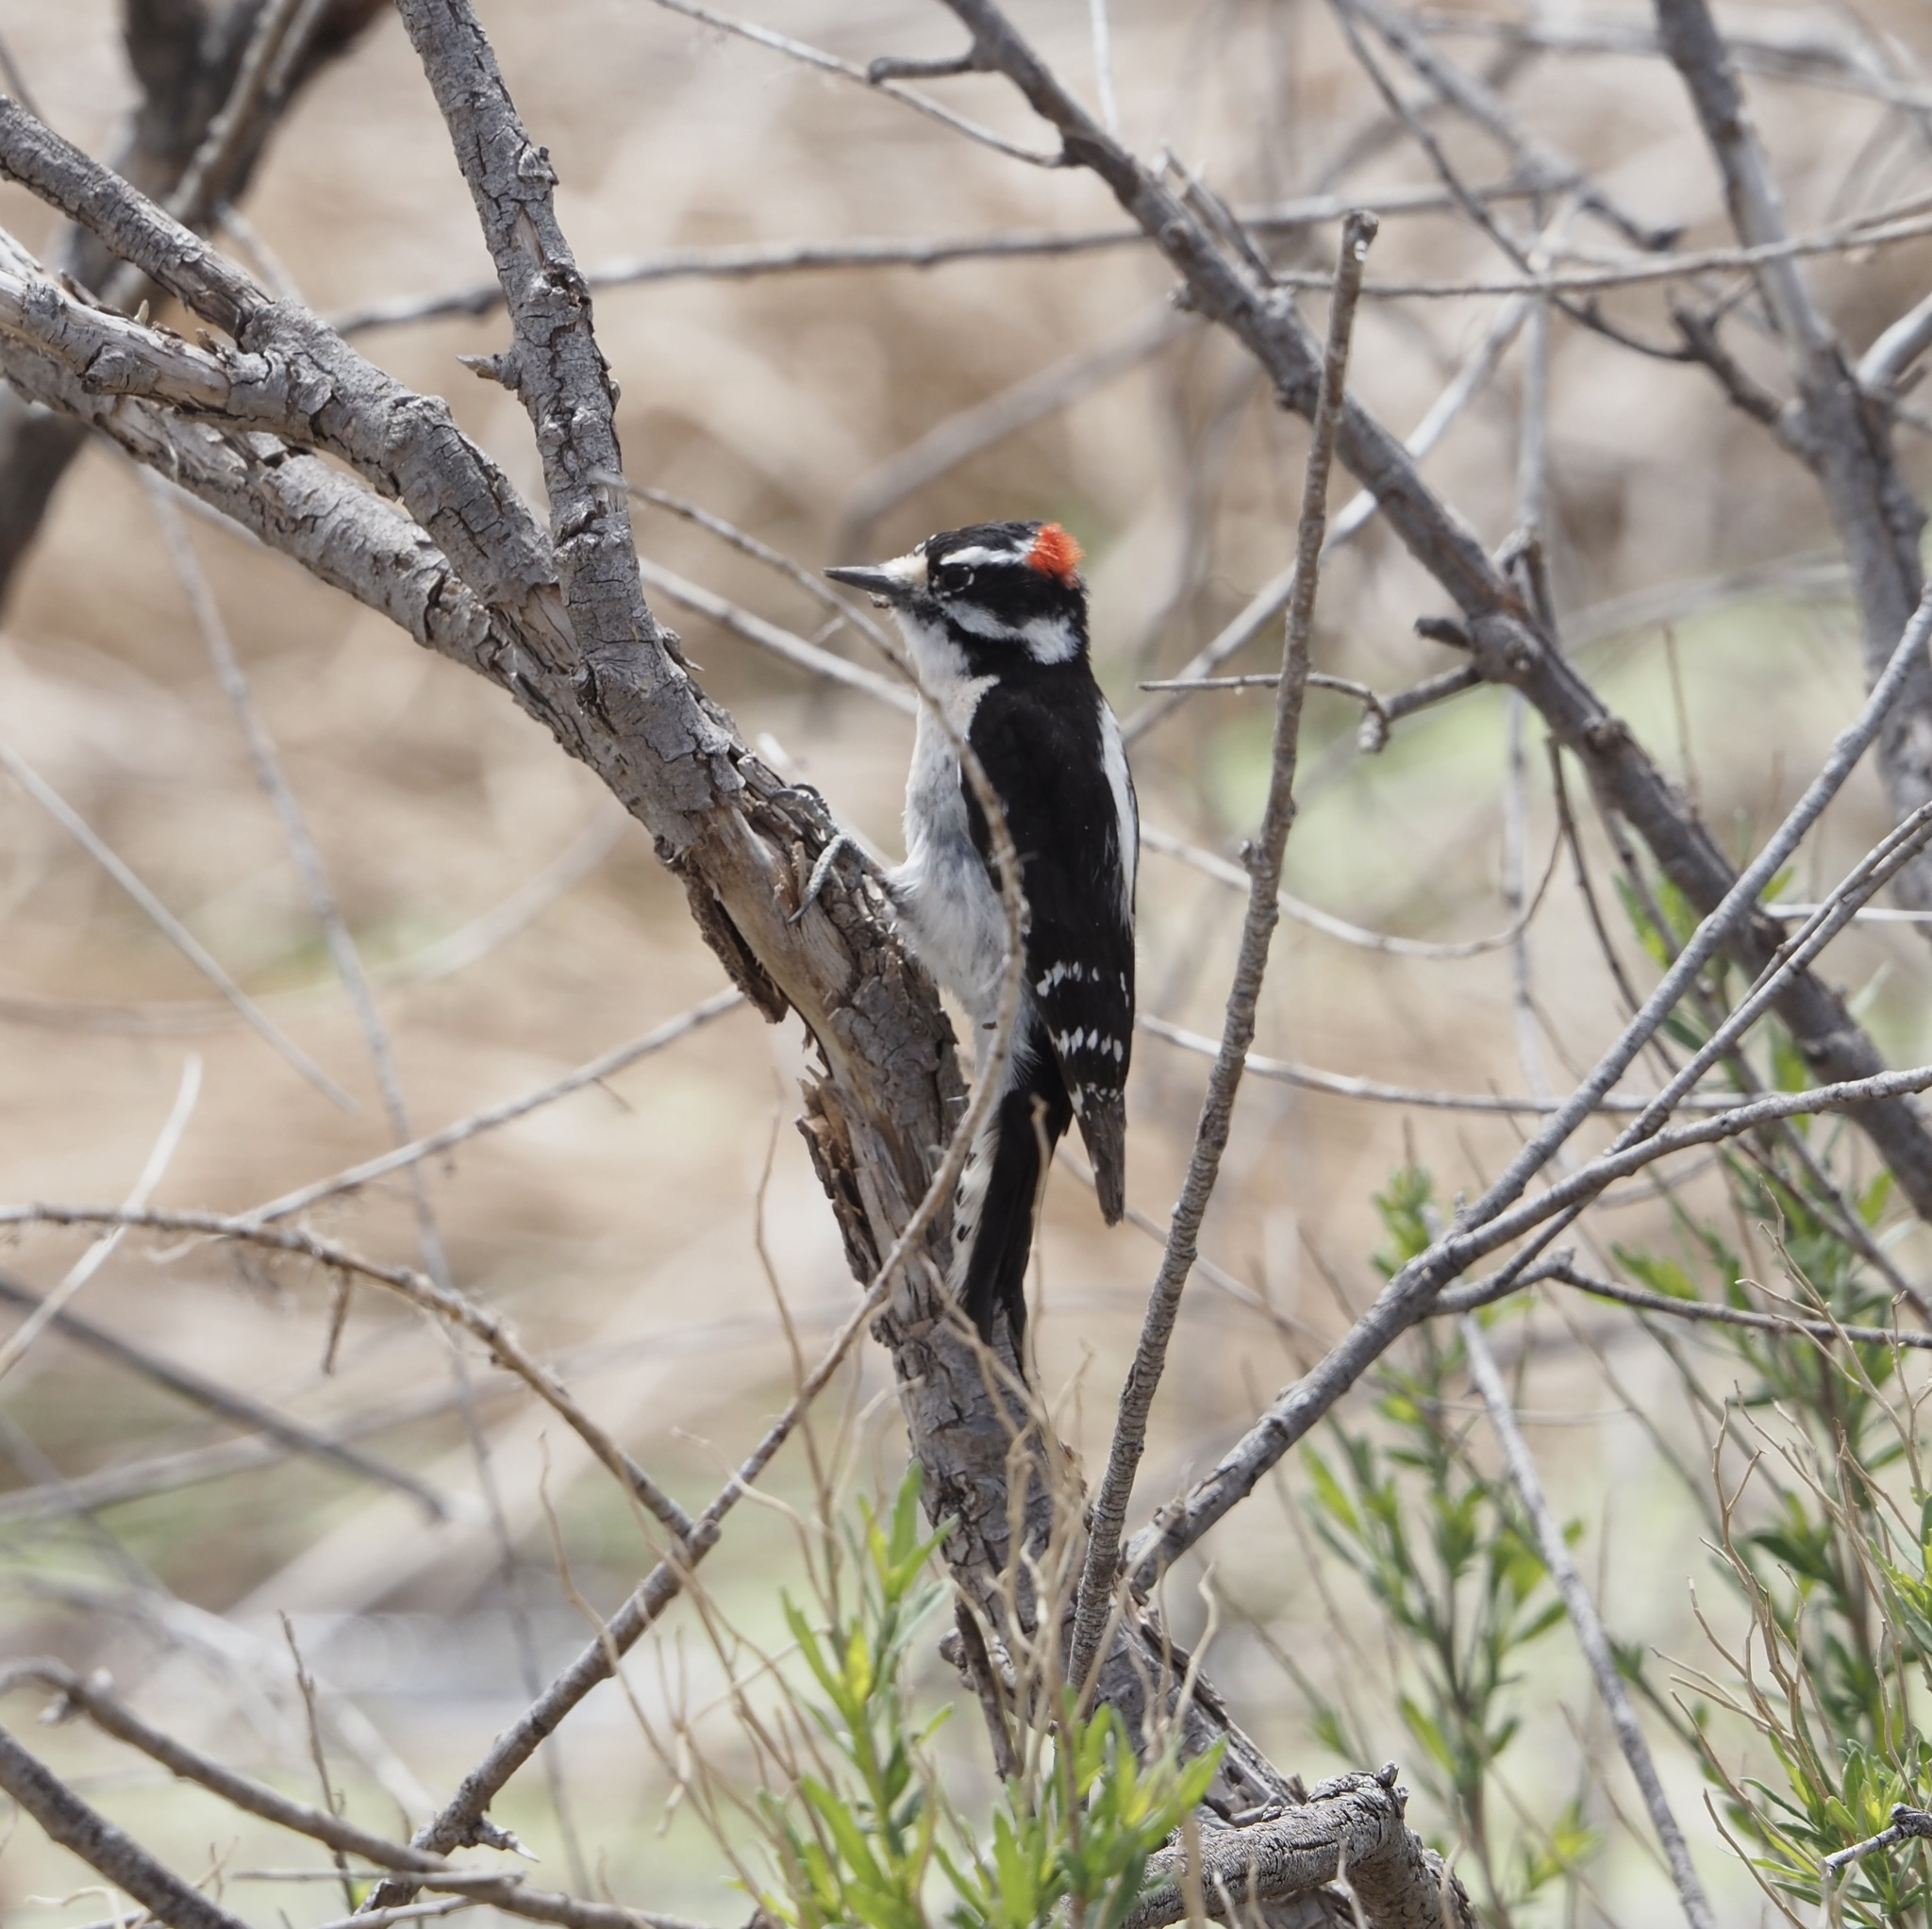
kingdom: Animalia
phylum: Chordata
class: Aves
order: Piciformes
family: Picidae
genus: Dryobates
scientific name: Dryobates pubescens
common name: Downy woodpecker
